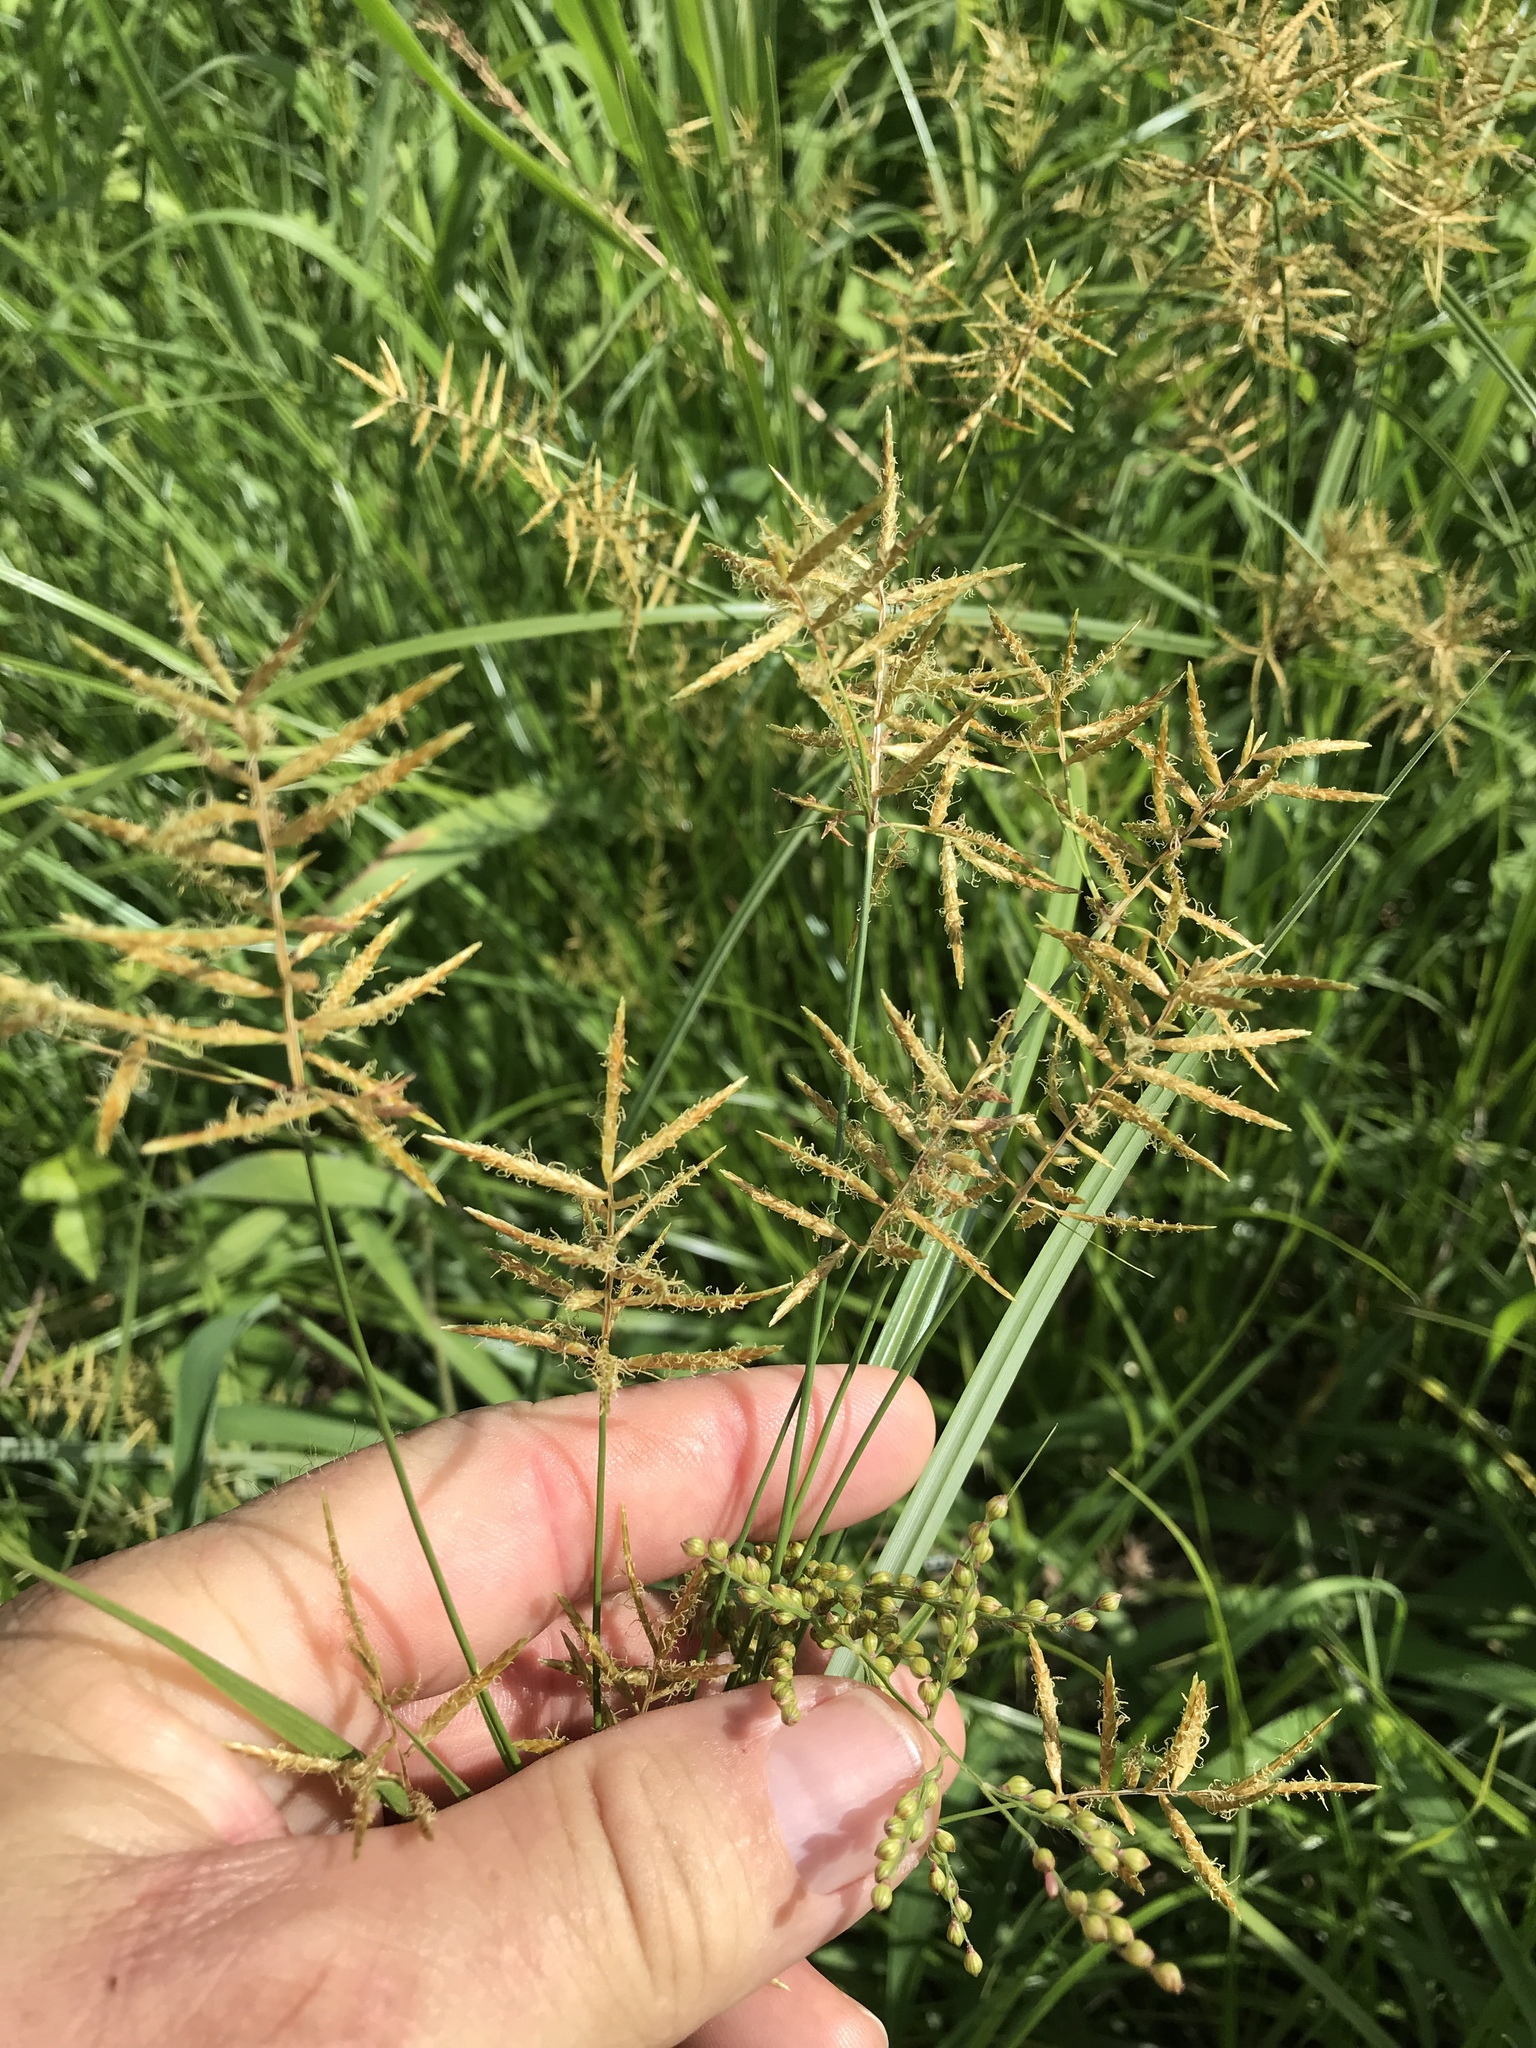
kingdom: Plantae
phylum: Tracheophyta
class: Liliopsida
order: Poales
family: Cyperaceae
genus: Cyperus
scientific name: Cyperus esculentus
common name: Yellow nutsedge
